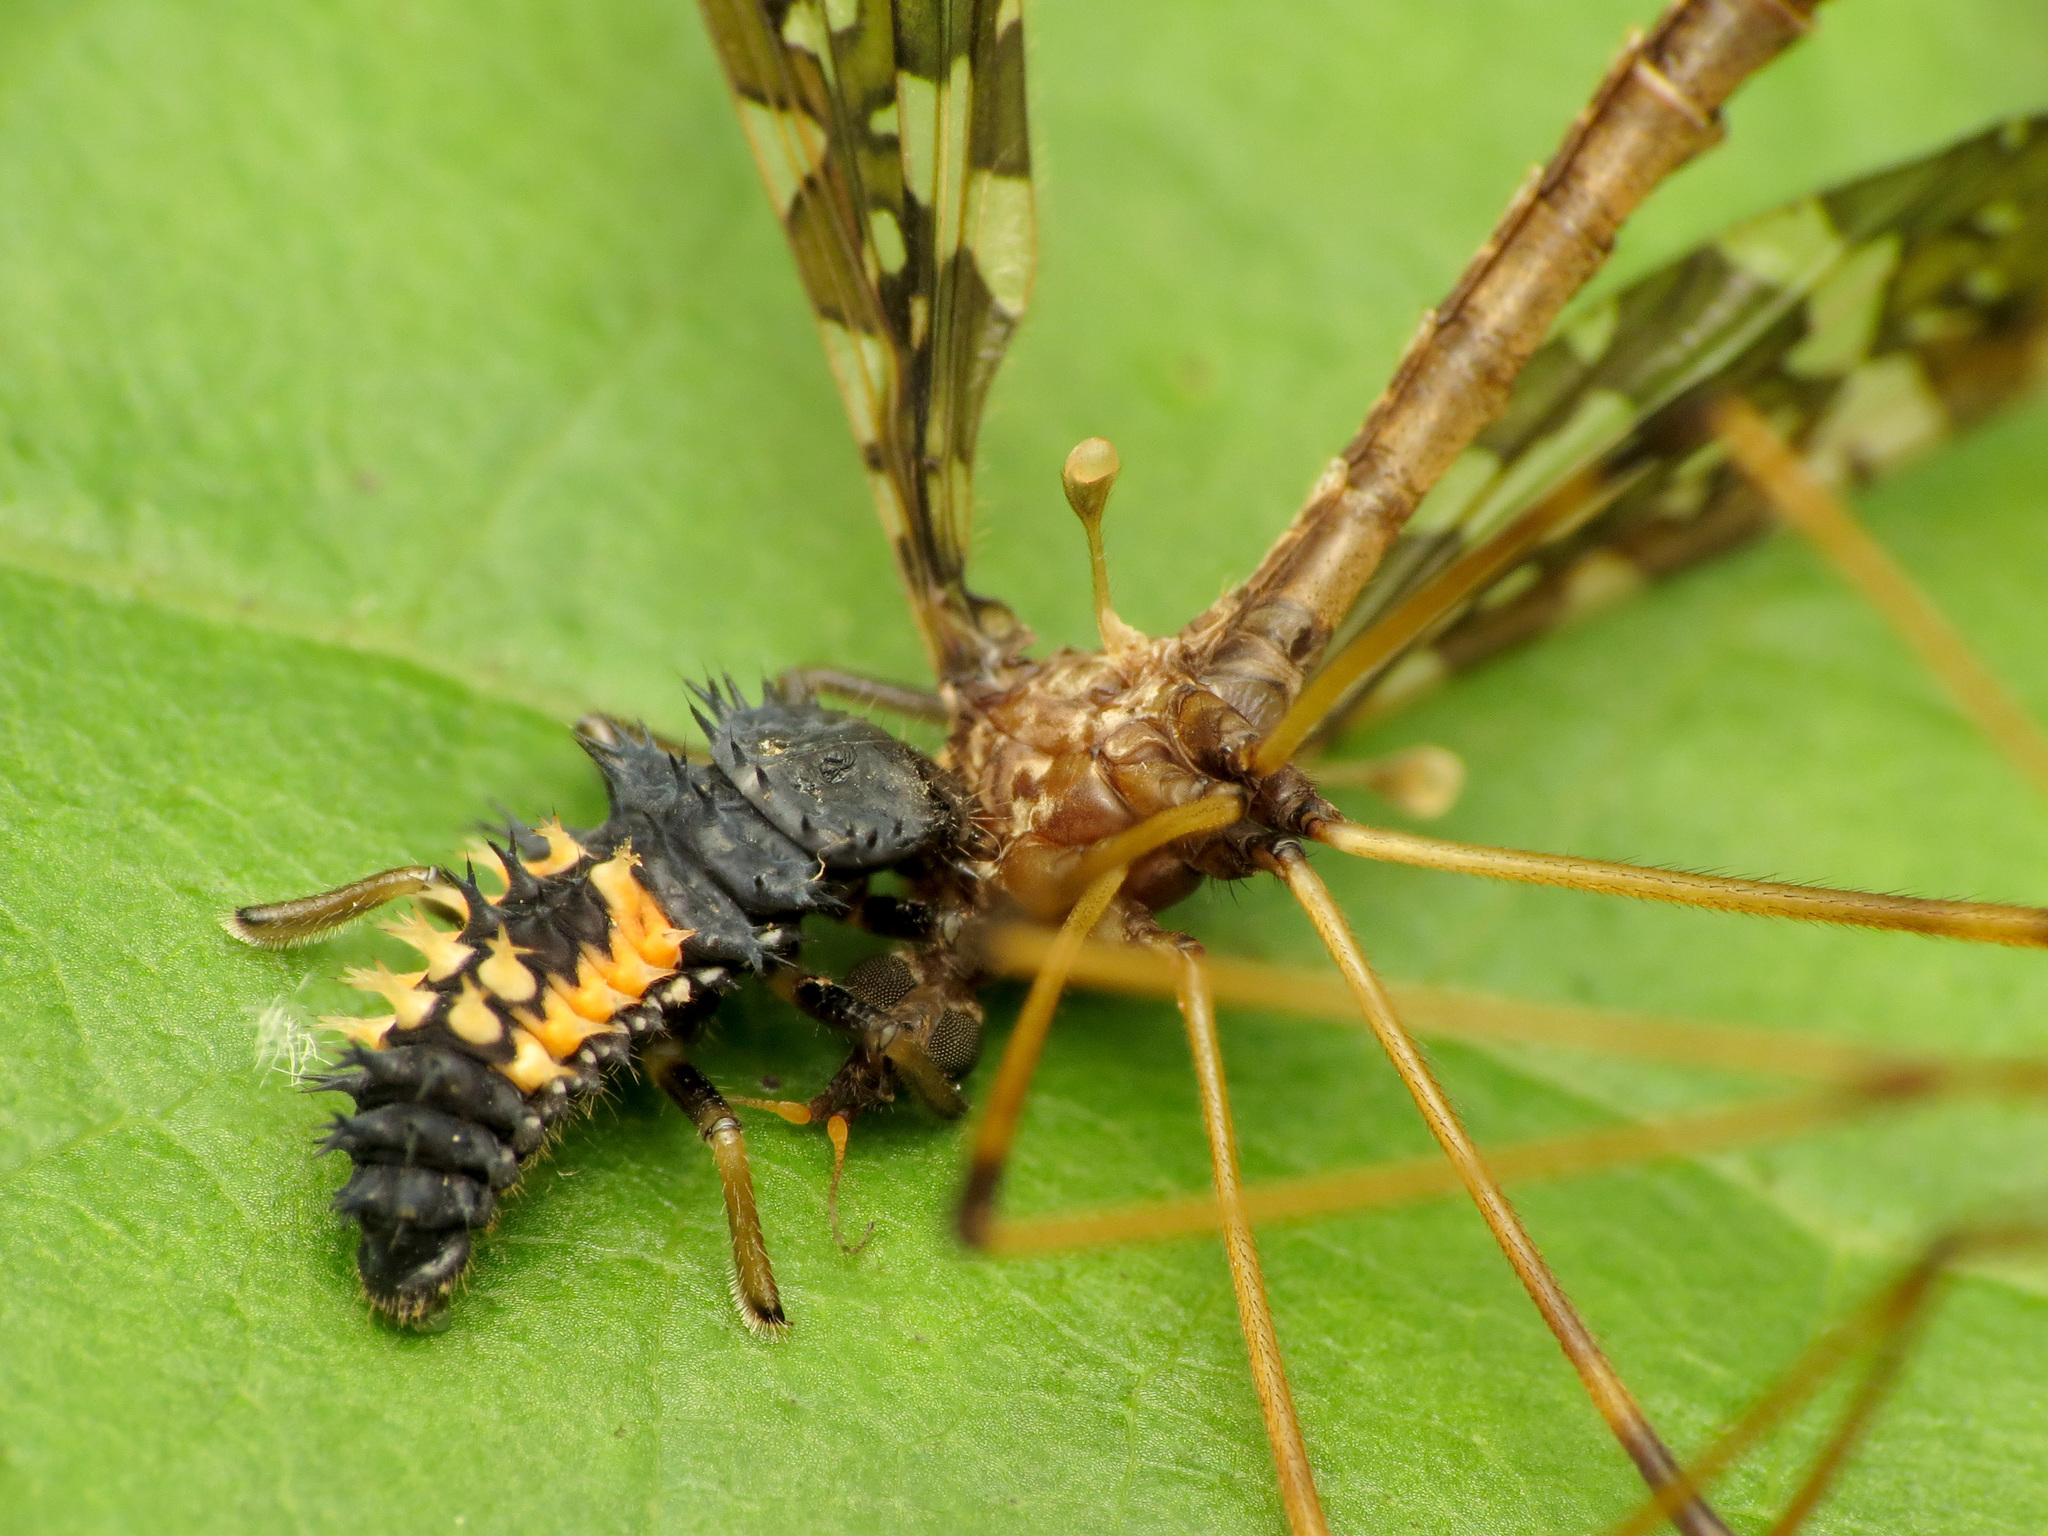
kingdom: Animalia
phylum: Arthropoda
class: Insecta
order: Diptera
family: Limoniidae
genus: Epiphragma
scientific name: Epiphragma fasciapenne
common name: Band-winged crane fly
